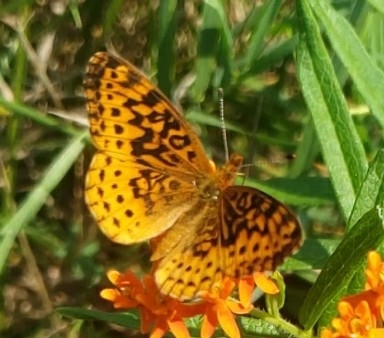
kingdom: Animalia
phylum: Arthropoda
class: Insecta
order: Lepidoptera
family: Nymphalidae
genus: Clossiana
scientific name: Clossiana toddi
